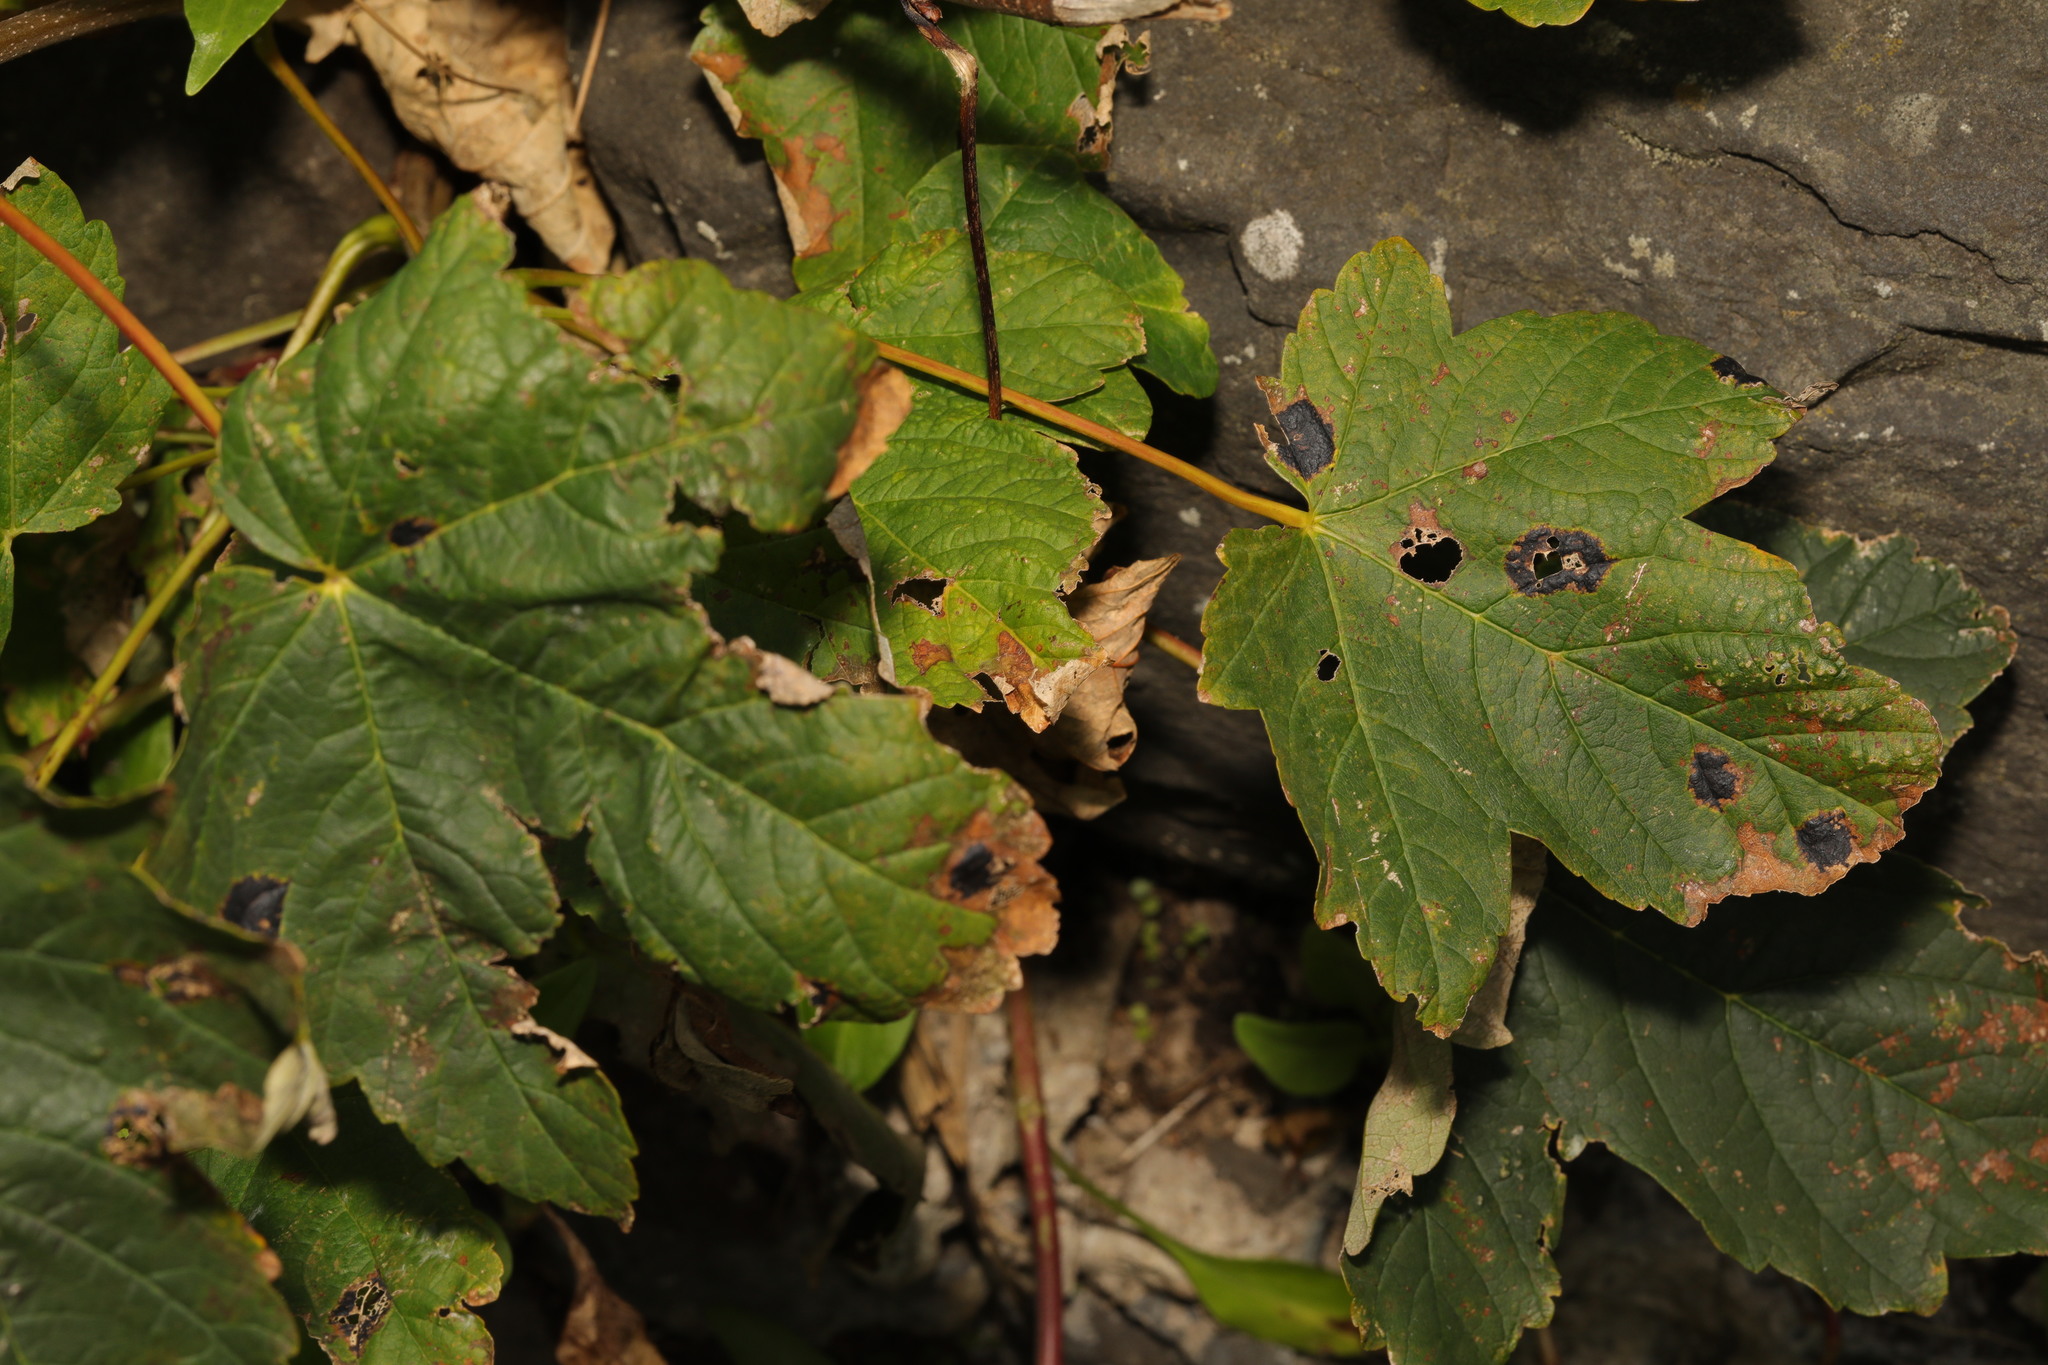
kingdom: Plantae
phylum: Tracheophyta
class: Magnoliopsida
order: Sapindales
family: Sapindaceae
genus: Acer
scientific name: Acer pseudoplatanus
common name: Sycamore
